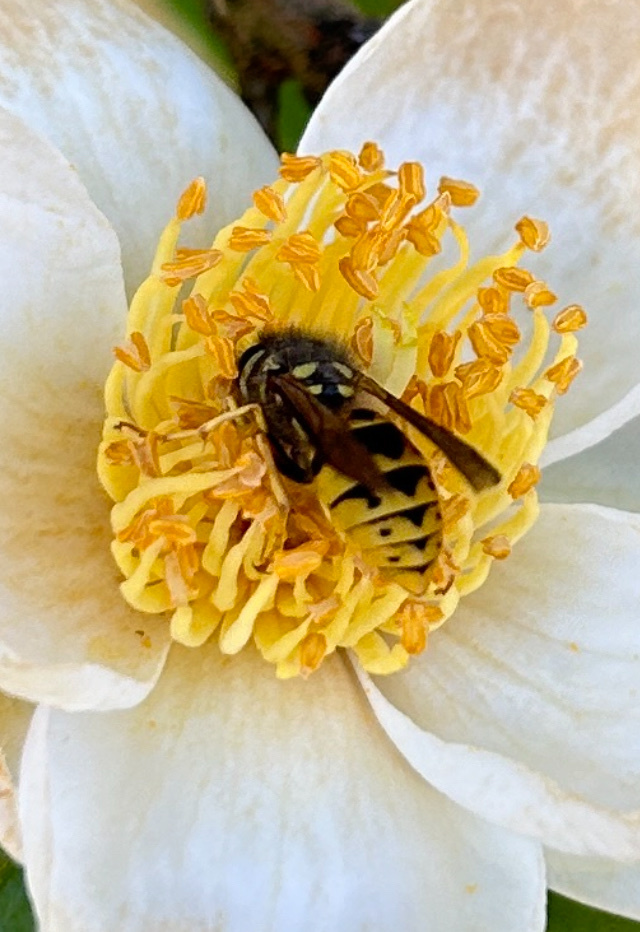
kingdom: Animalia
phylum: Arthropoda
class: Insecta
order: Hymenoptera
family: Vespidae
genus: Vespula
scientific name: Vespula germanica
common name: German wasp
